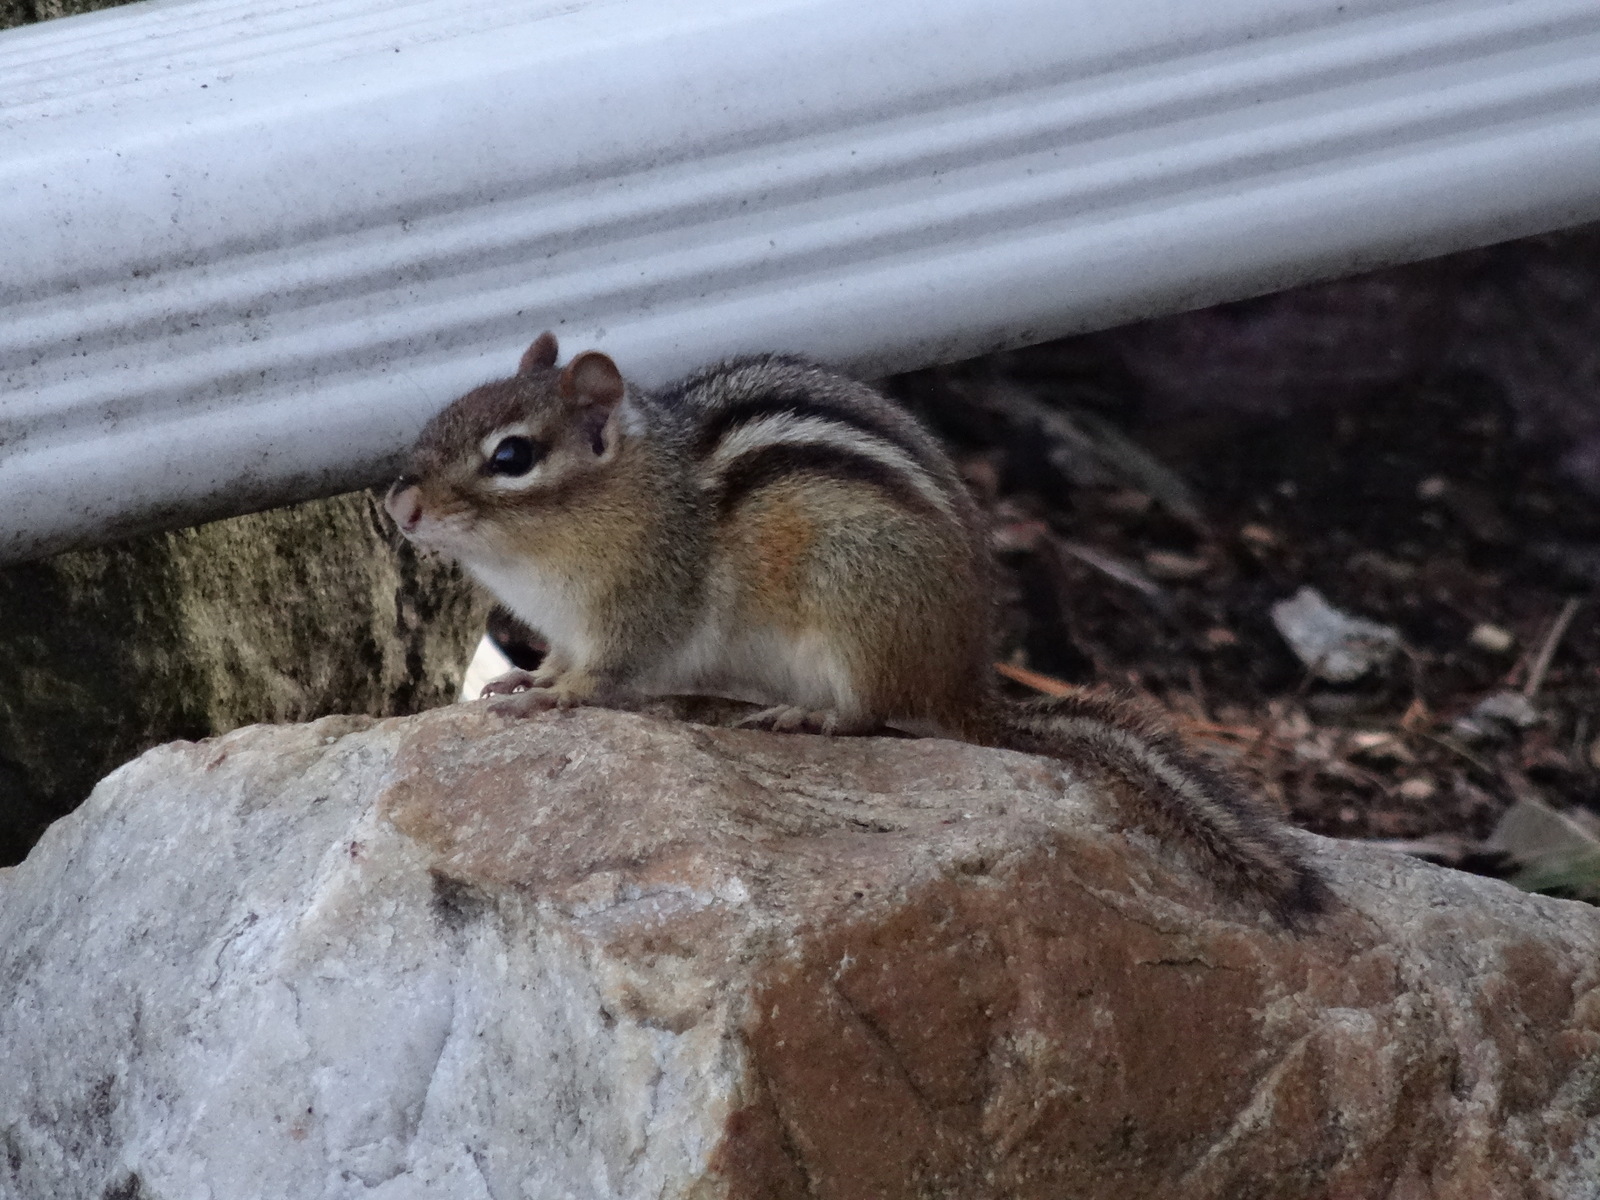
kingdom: Animalia
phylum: Chordata
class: Mammalia
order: Rodentia
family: Sciuridae
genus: Tamias
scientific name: Tamias striatus
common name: Eastern chipmunk
